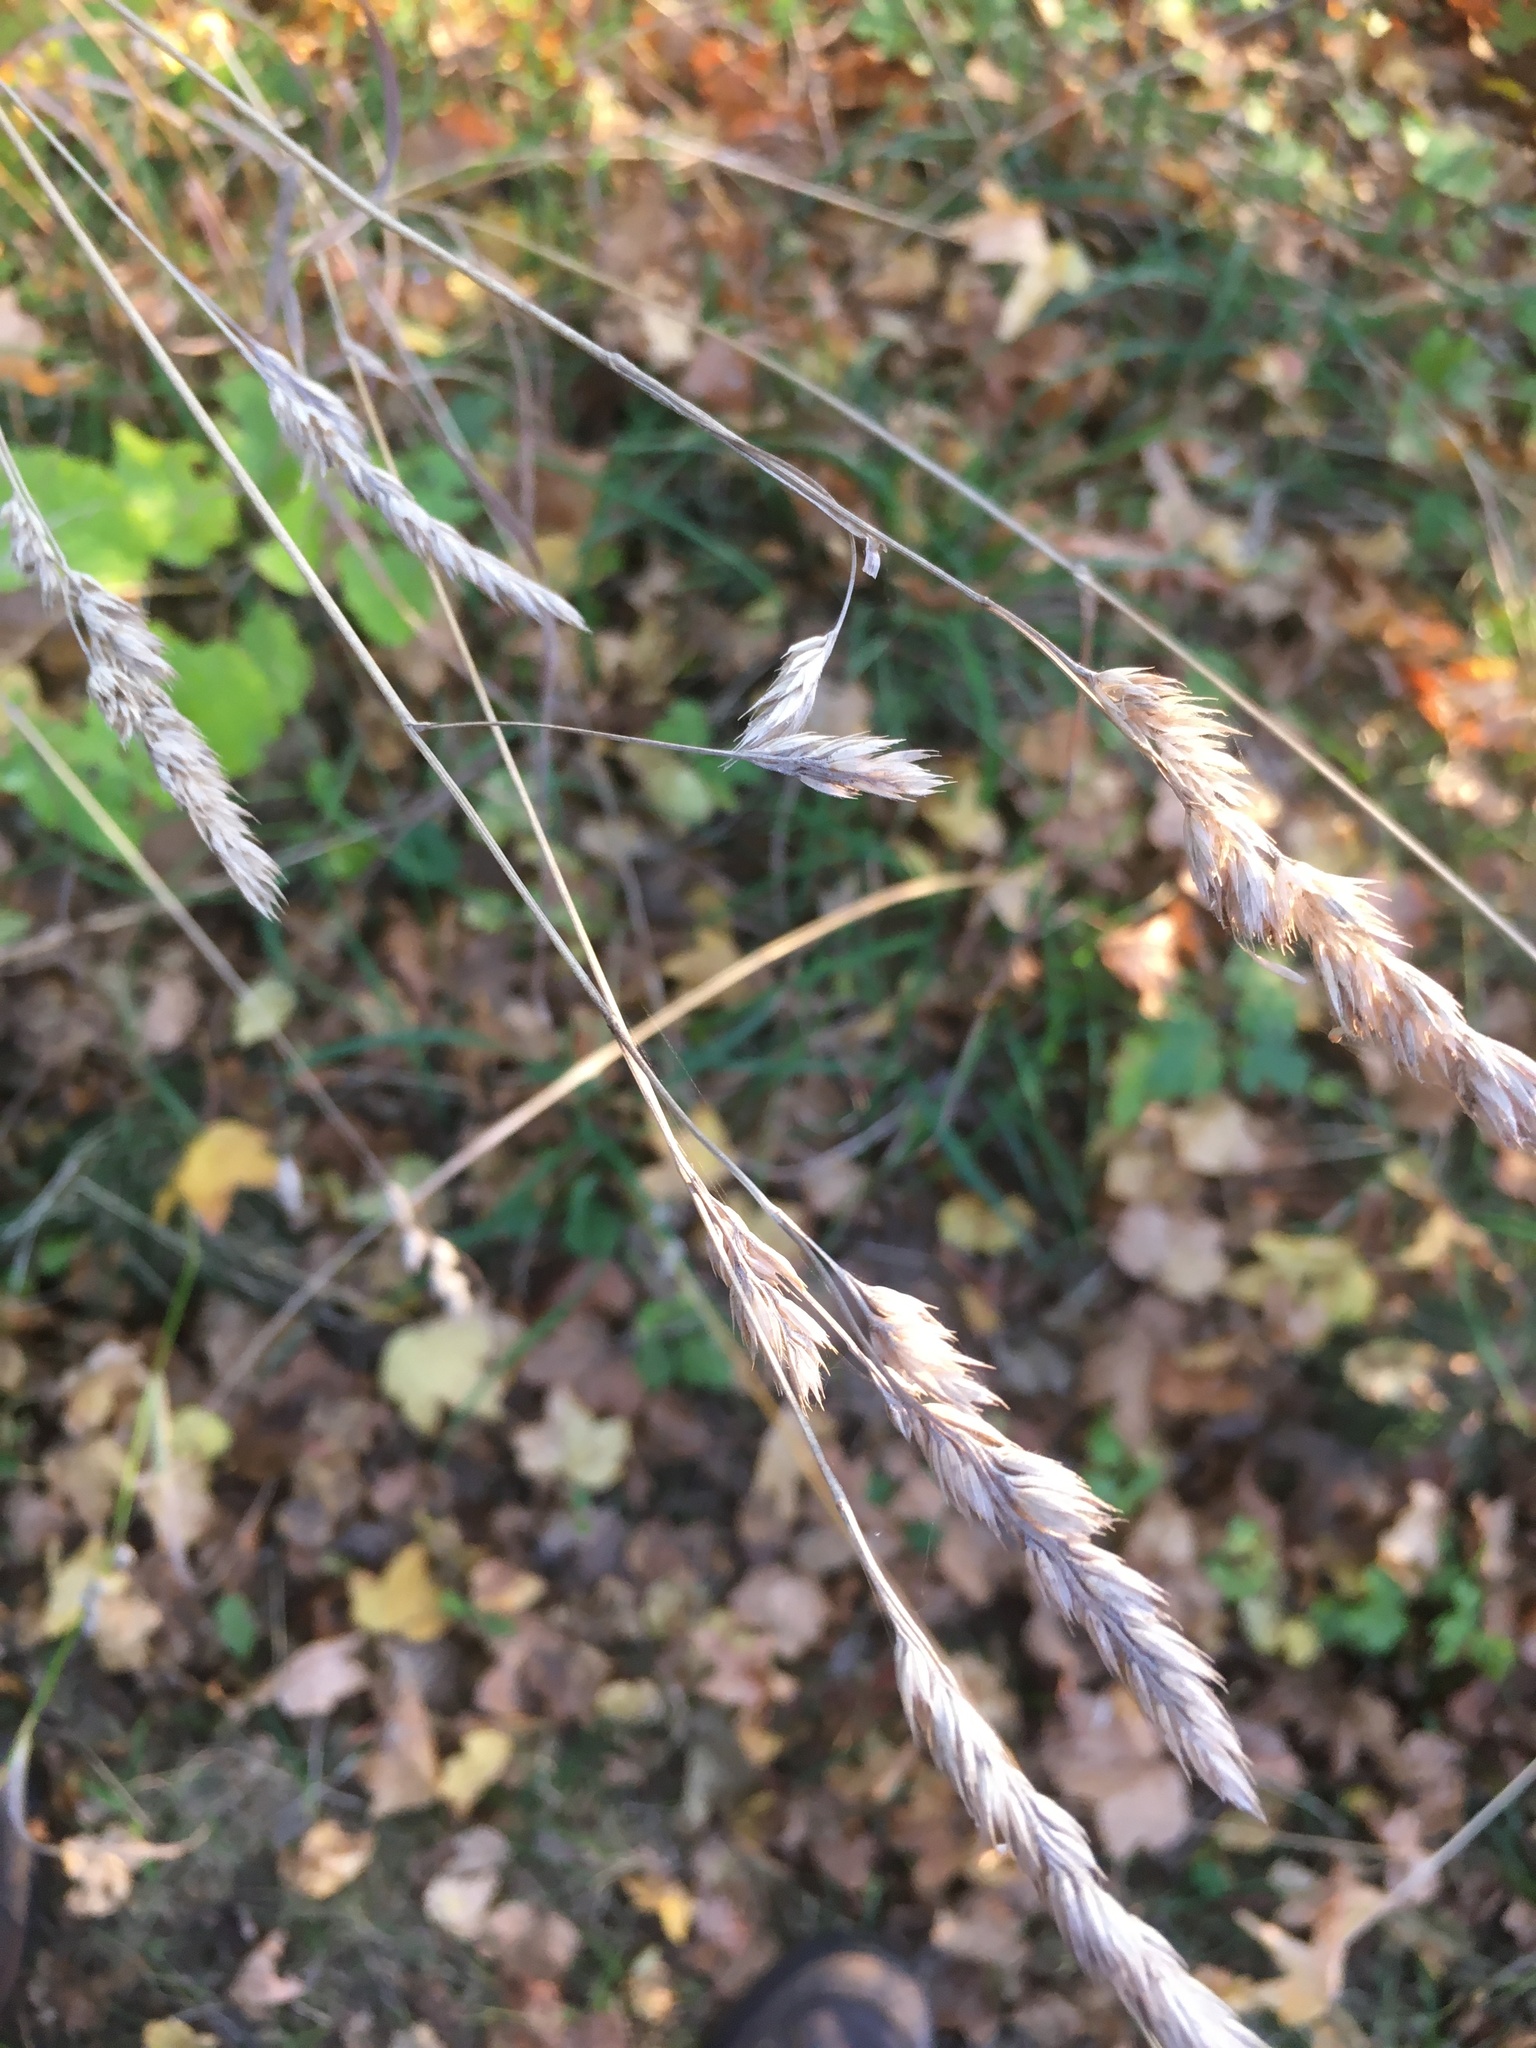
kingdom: Plantae
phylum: Tracheophyta
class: Liliopsida
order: Poales
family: Poaceae
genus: Dactylis
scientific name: Dactylis glomerata
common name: Orchardgrass
